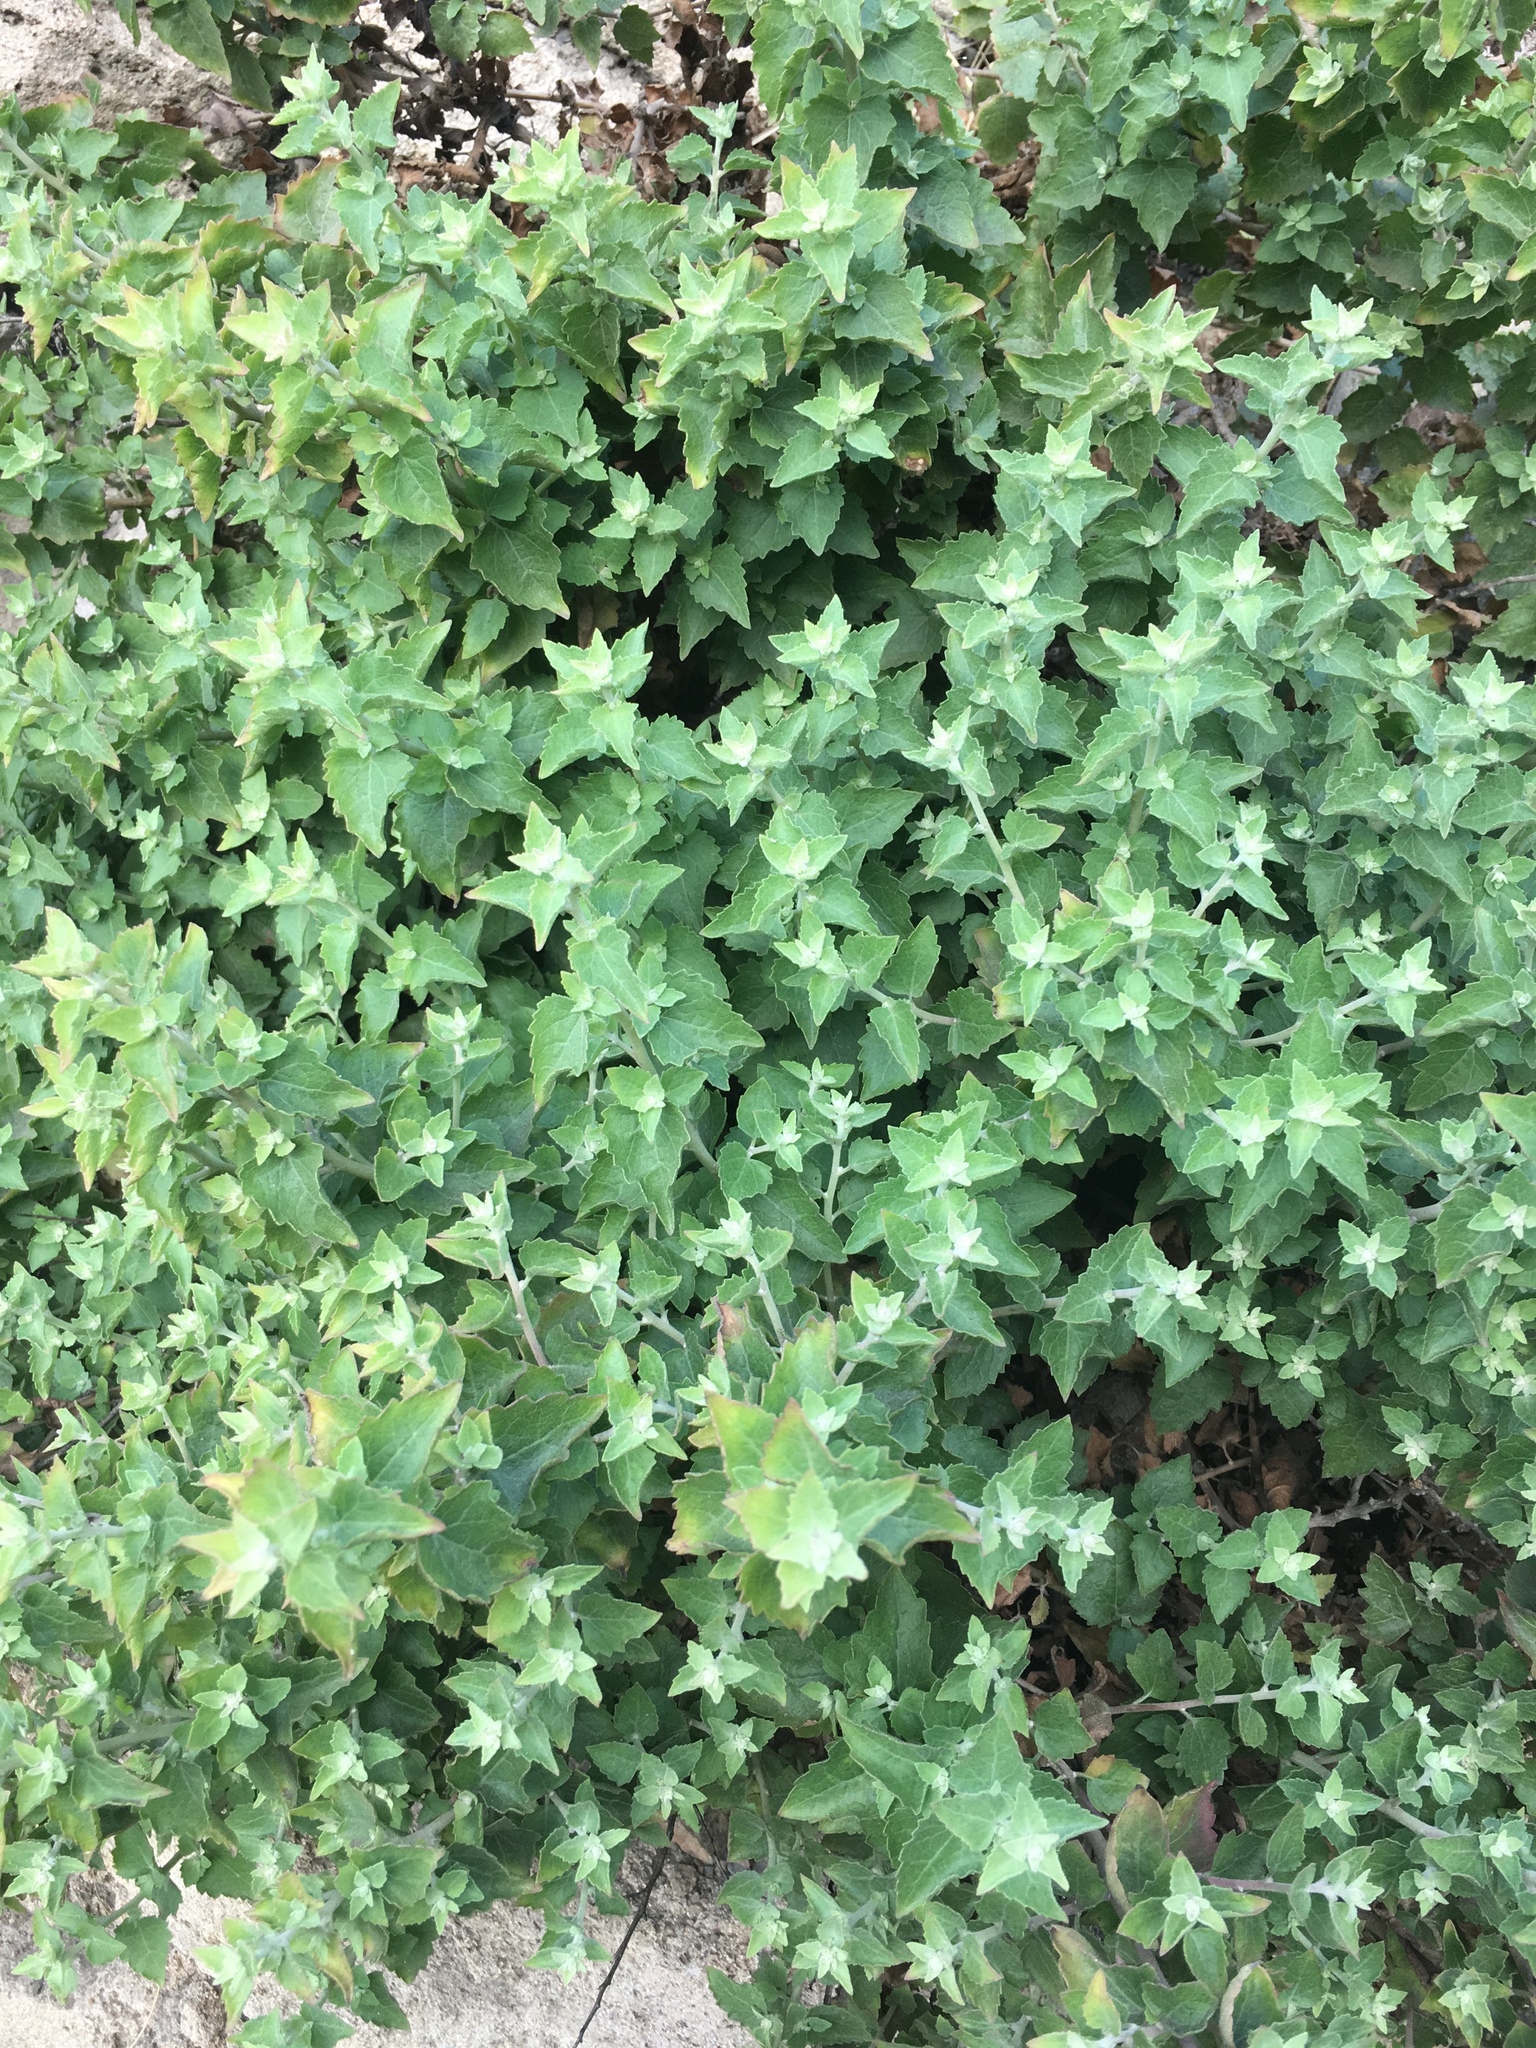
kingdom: Plantae
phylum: Tracheophyta
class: Magnoliopsida
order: Asterales
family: Asteraceae
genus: Brickellia
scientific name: Brickellia californica
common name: California brickellbush
